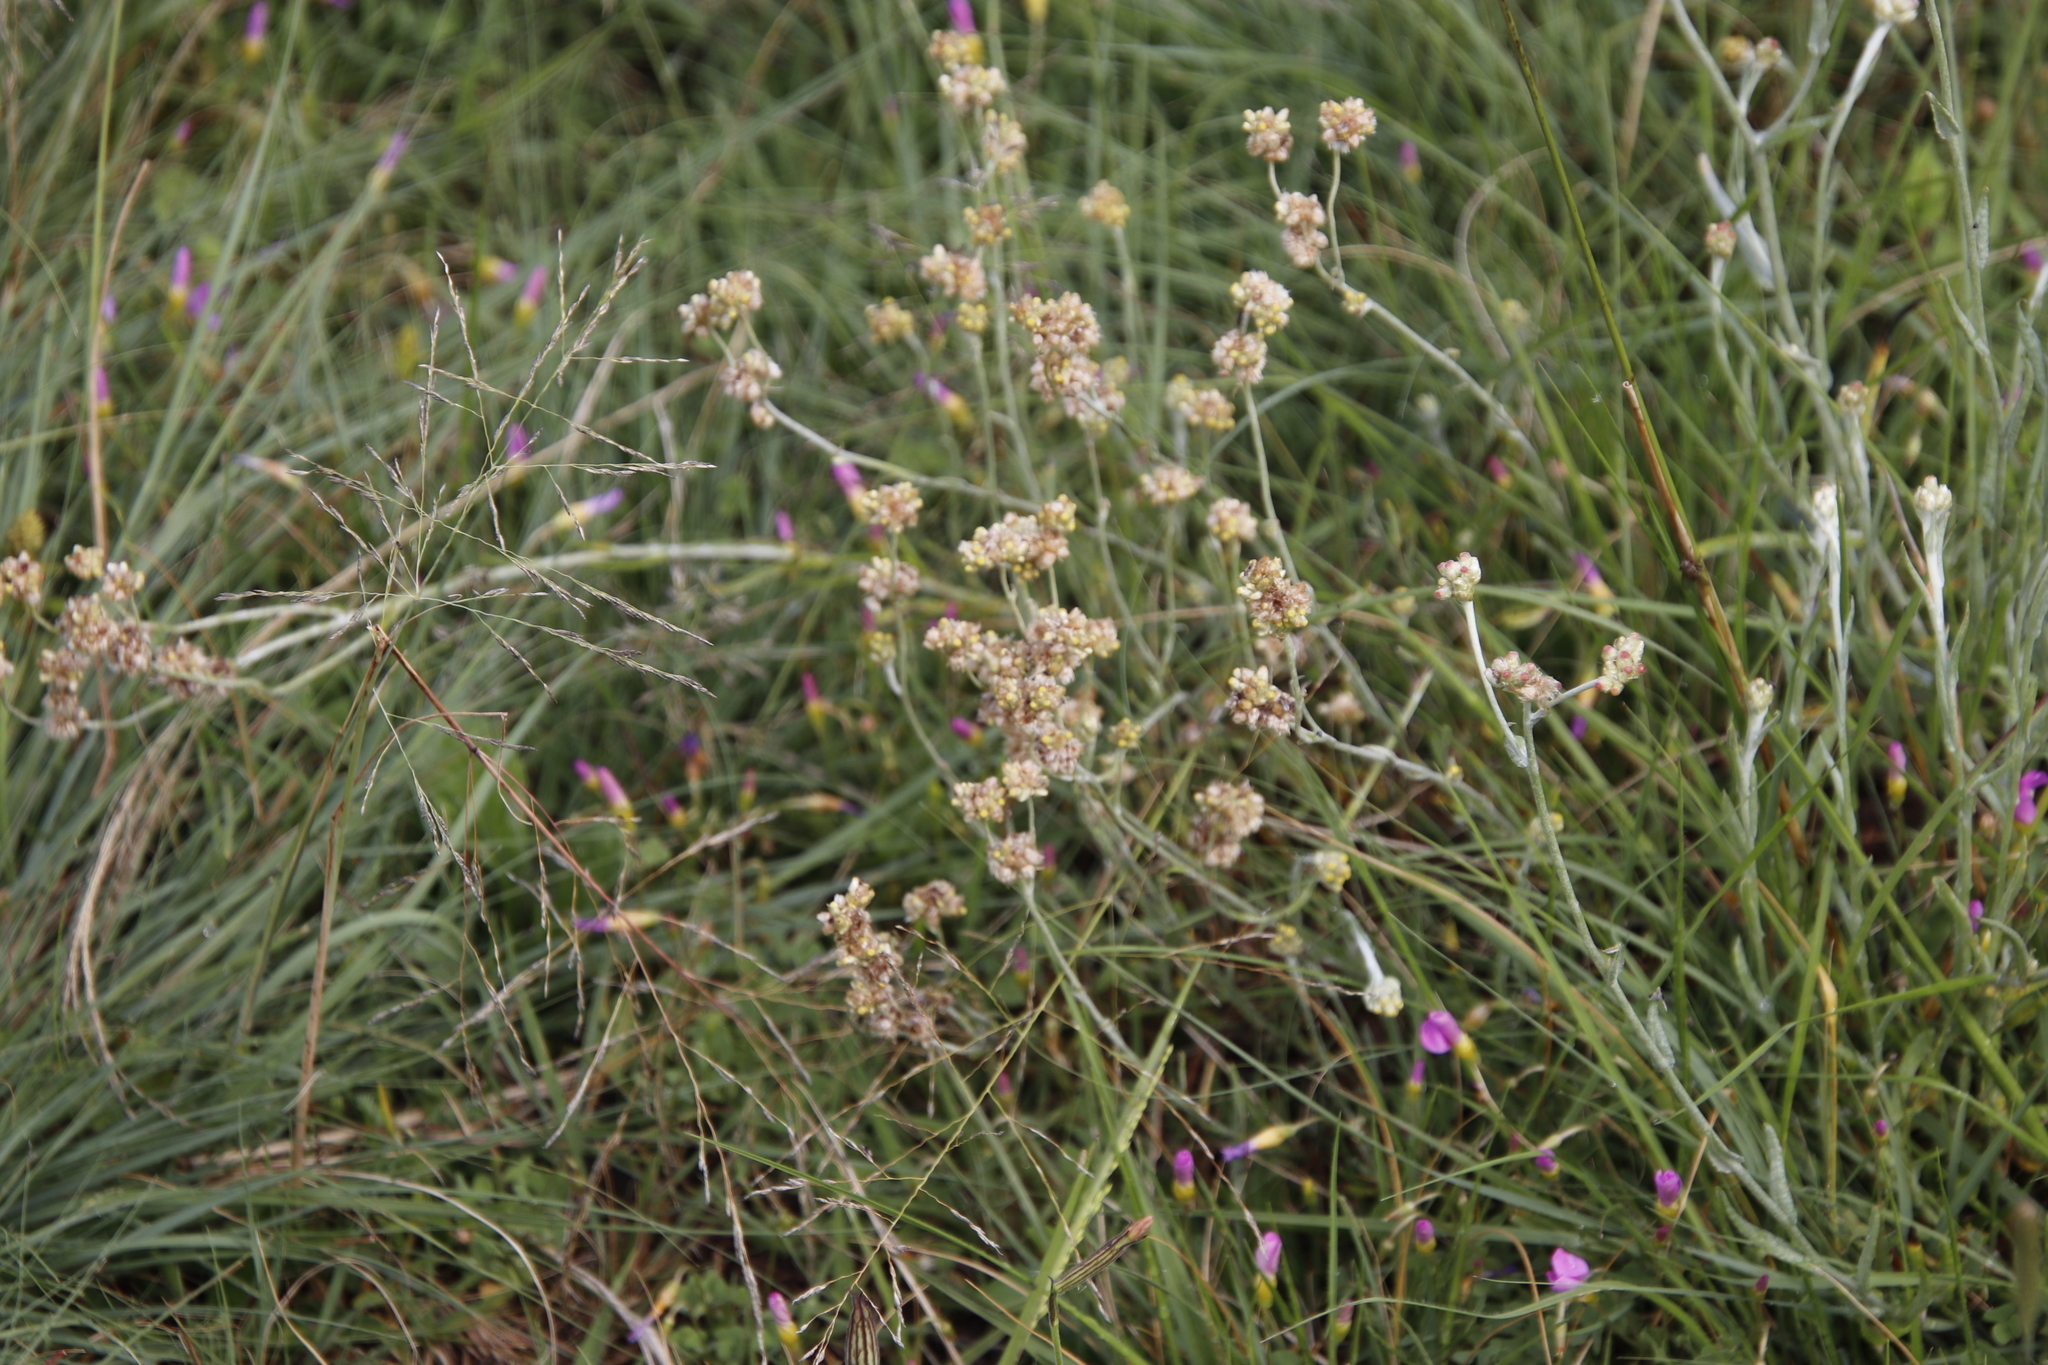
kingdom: Plantae
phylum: Tracheophyta
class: Magnoliopsida
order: Asterales
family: Asteraceae
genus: Pseudognaphalium
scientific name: Pseudognaphalium undulatum
